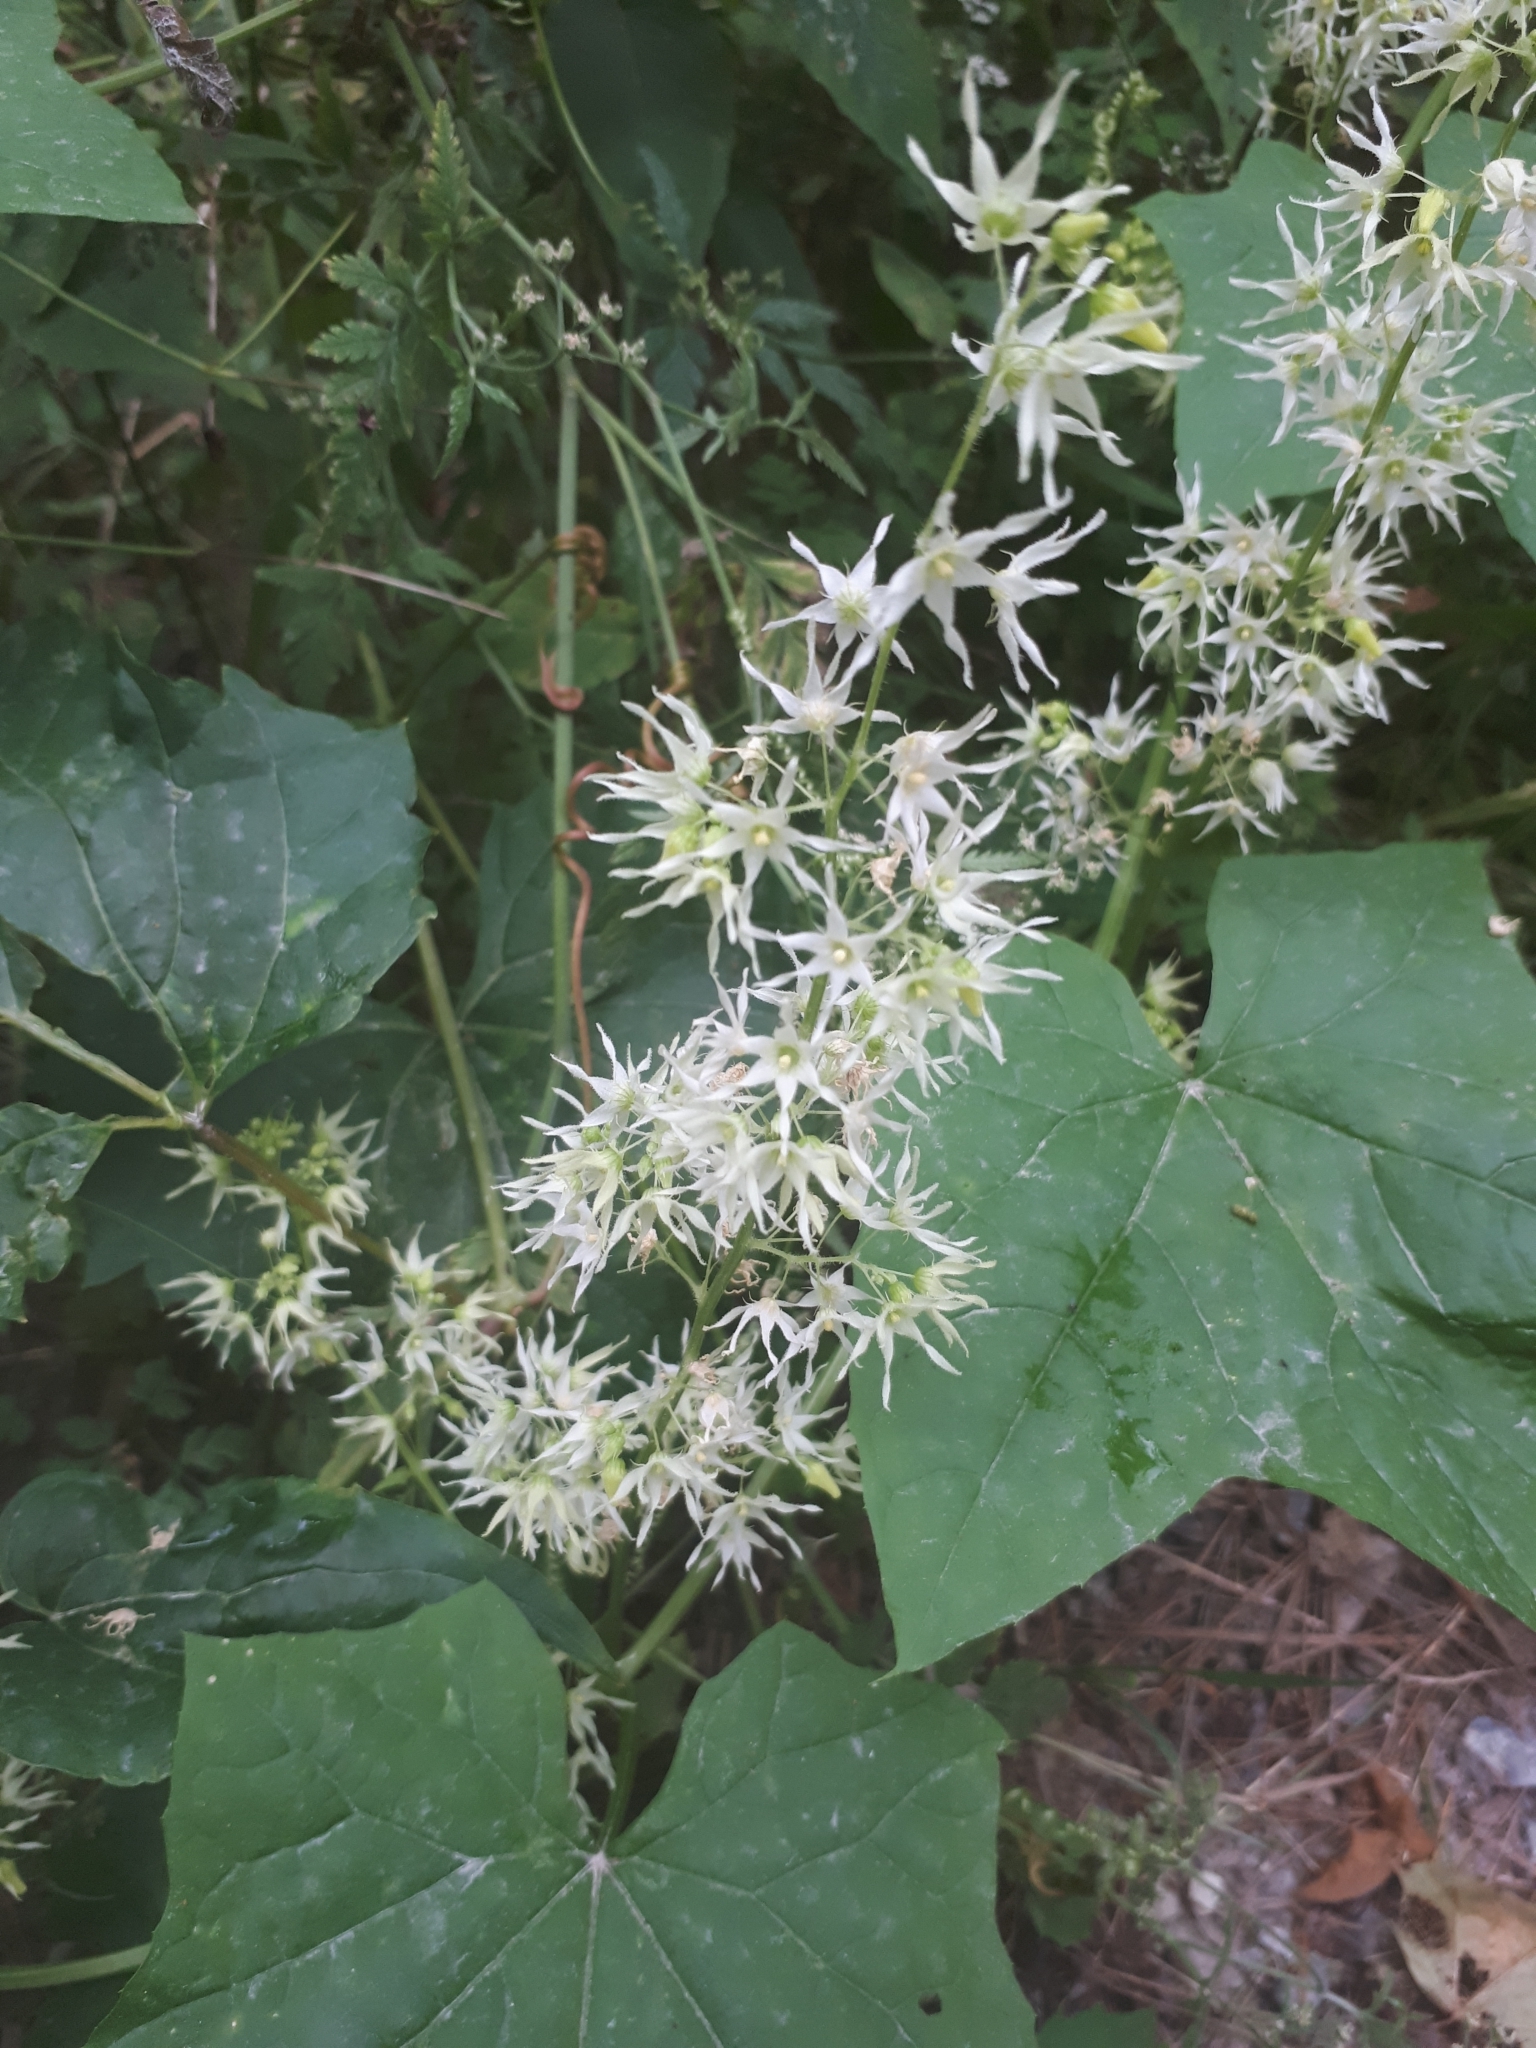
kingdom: Plantae
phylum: Tracheophyta
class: Magnoliopsida
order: Cucurbitales
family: Cucurbitaceae
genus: Echinocystis
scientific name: Echinocystis lobata
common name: Wild cucumber
